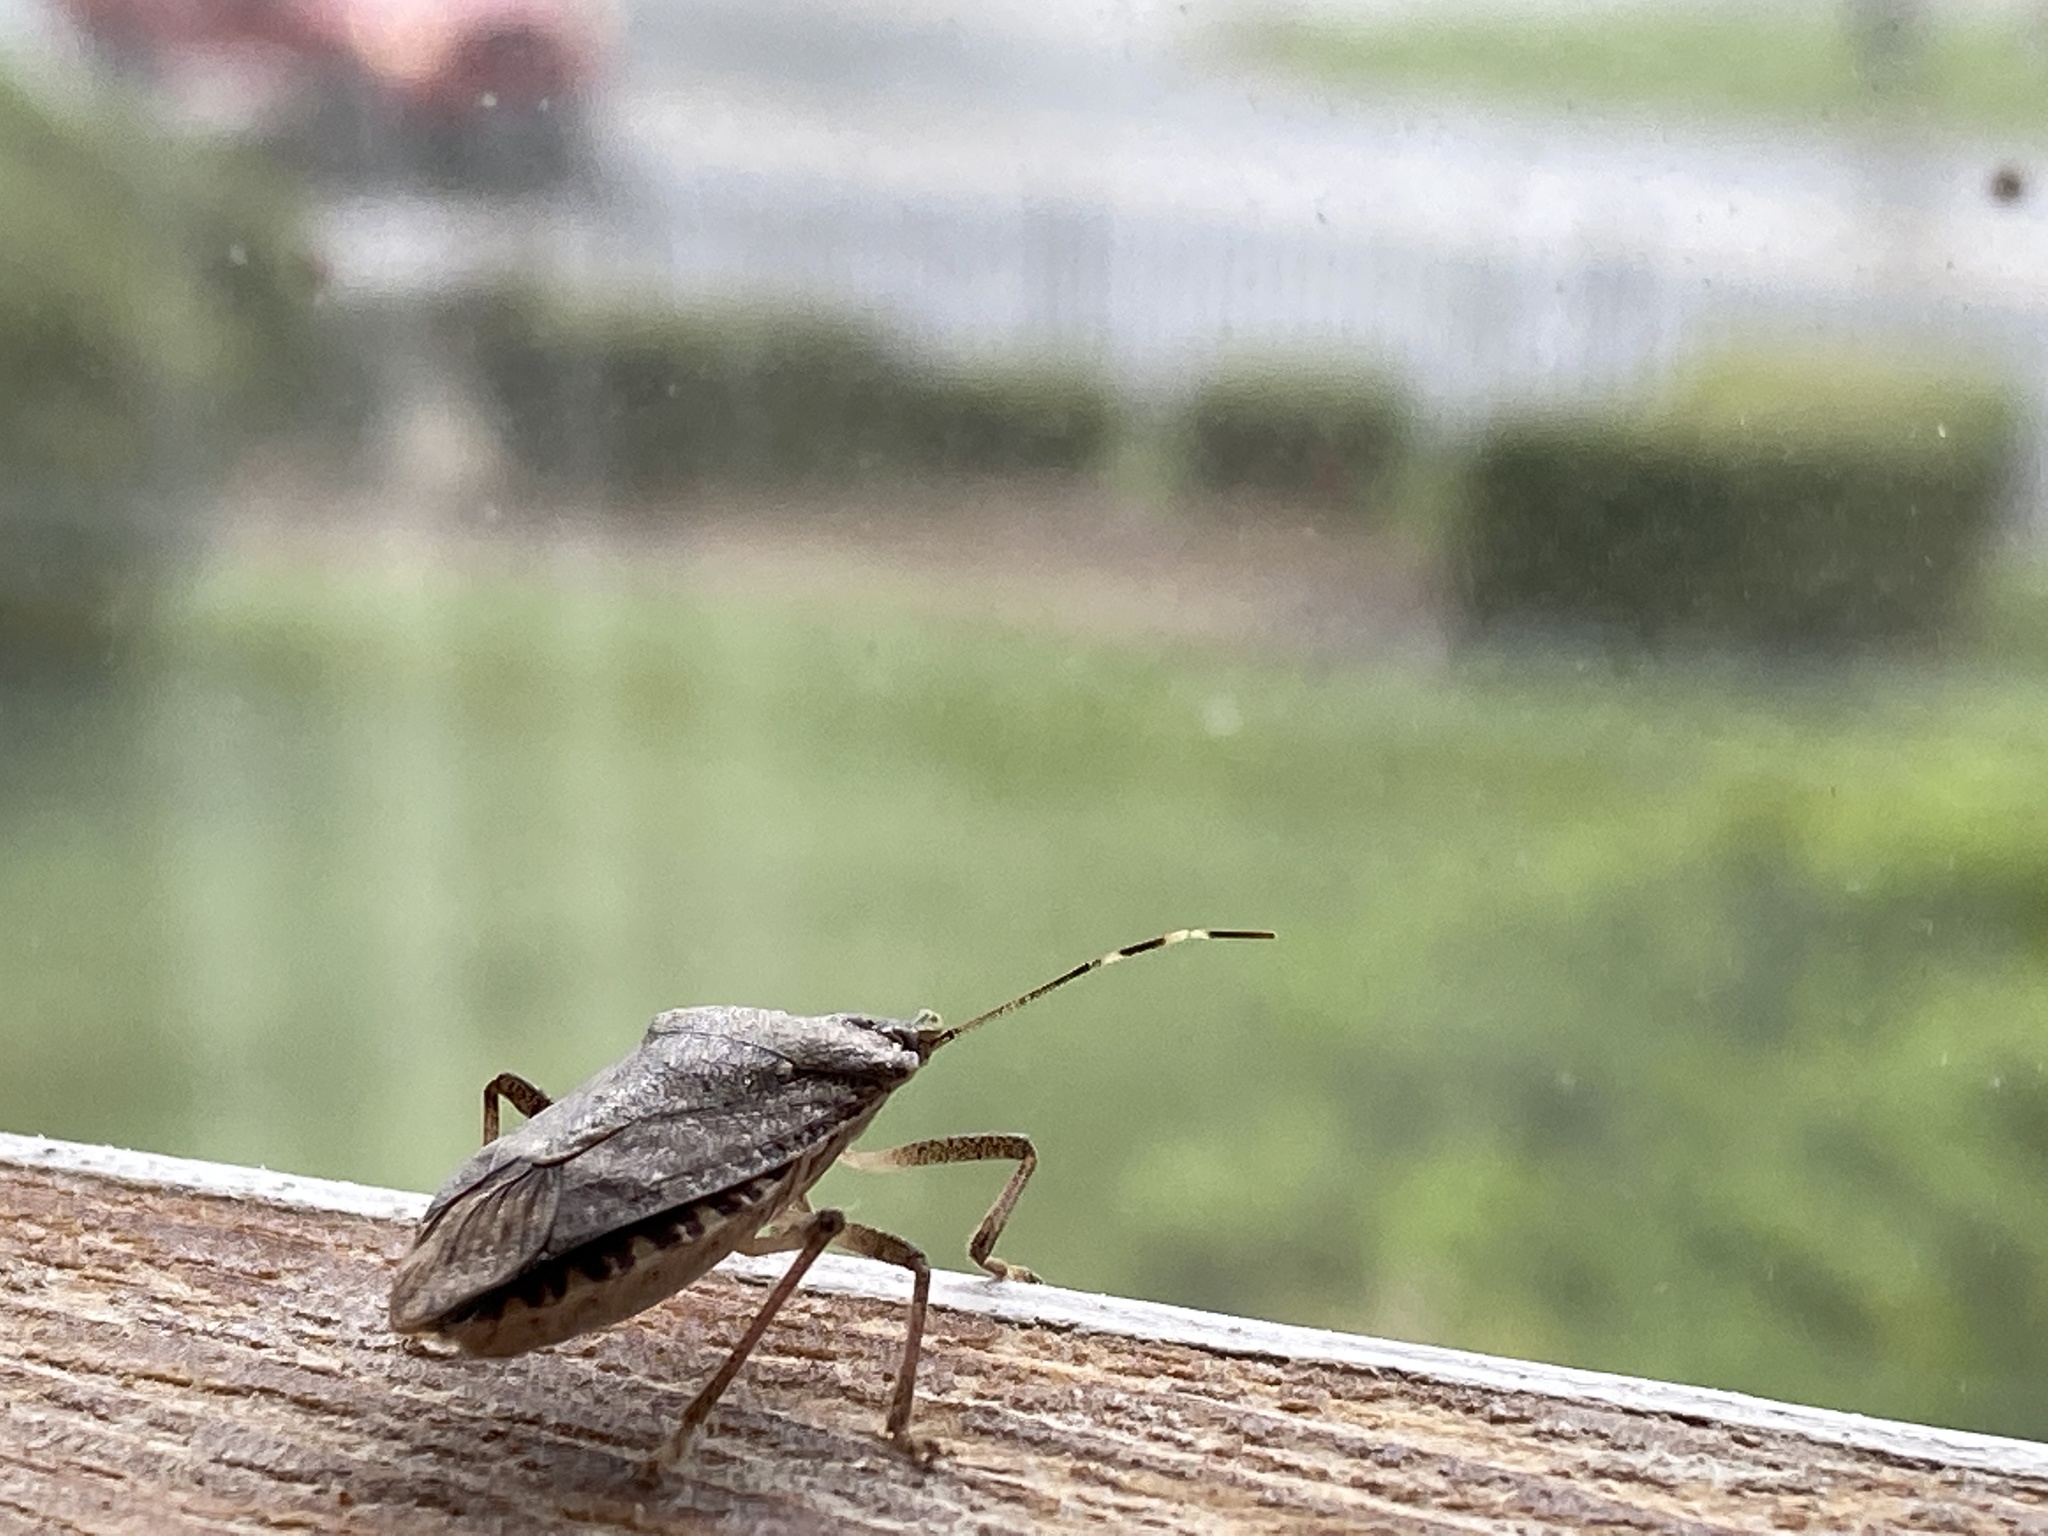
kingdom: Animalia
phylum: Arthropoda
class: Insecta
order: Hemiptera
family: Pentatomidae
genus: Halyomorpha
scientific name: Halyomorpha halys
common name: Brown marmorated stink bug
